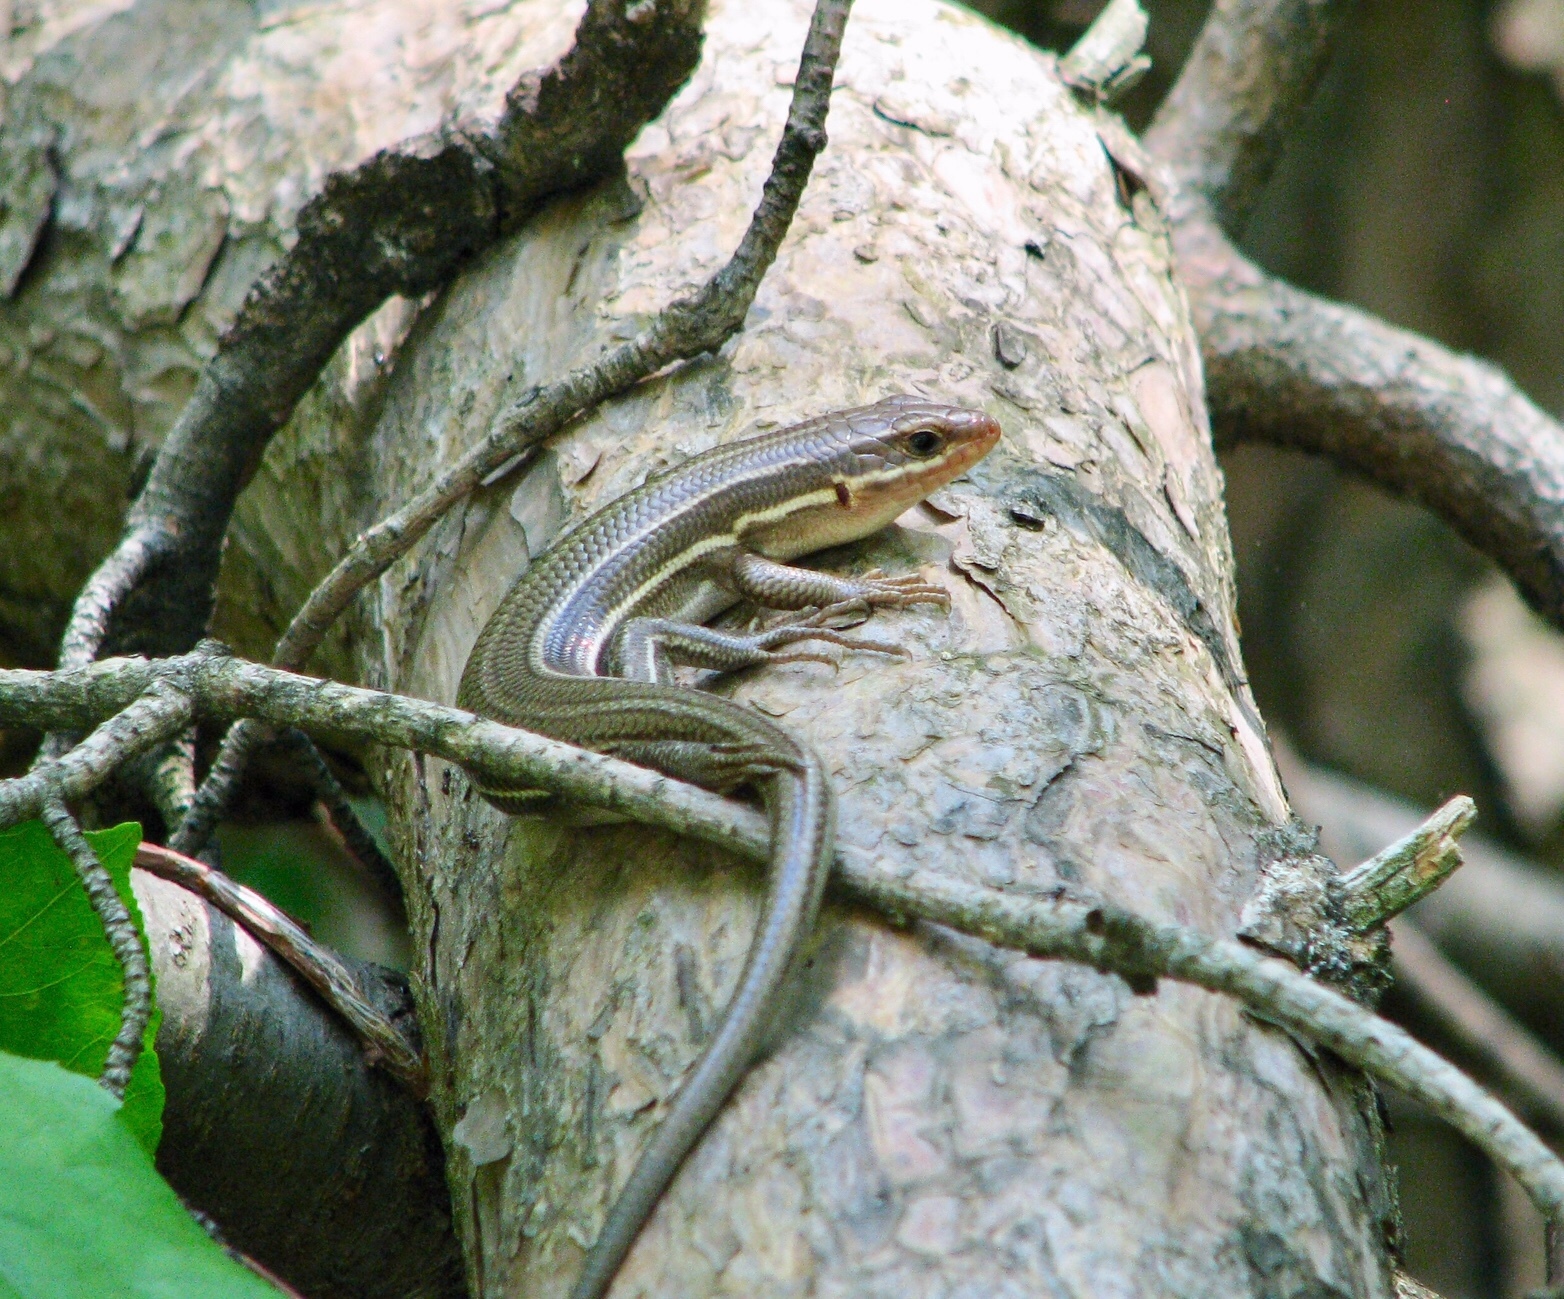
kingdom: Animalia
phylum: Chordata
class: Squamata
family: Scincidae
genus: Plestiodon
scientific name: Plestiodon laticeps
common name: Broadhead skink
